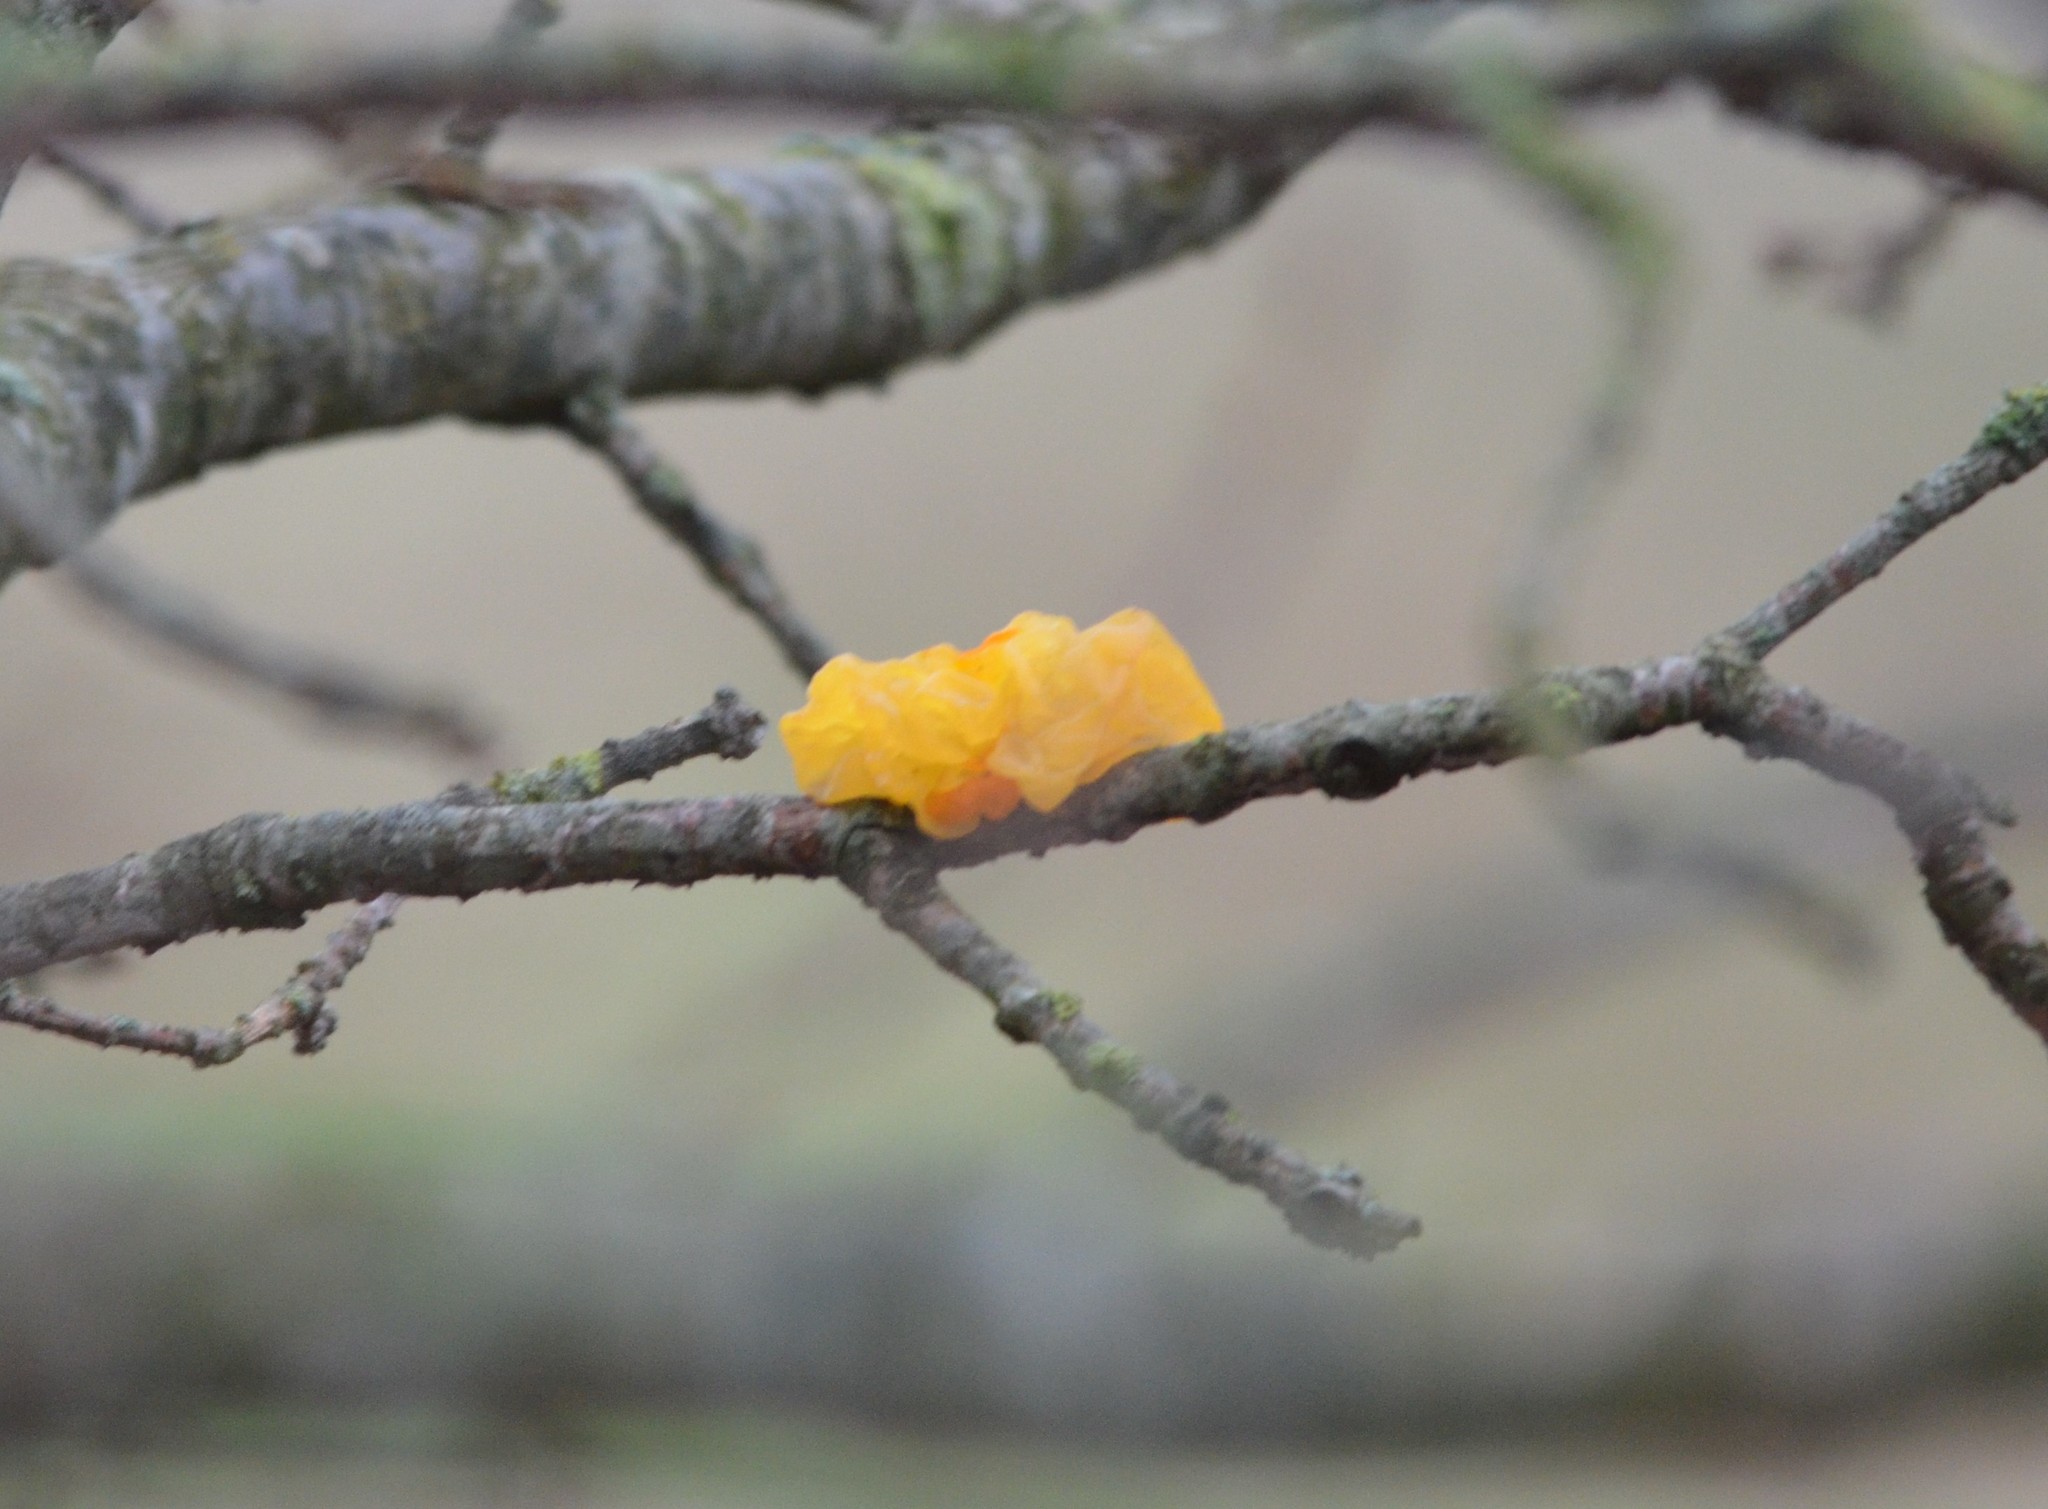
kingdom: Fungi
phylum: Basidiomycota
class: Tremellomycetes
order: Tremellales
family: Tremellaceae
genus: Tremella
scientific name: Tremella mesenterica
